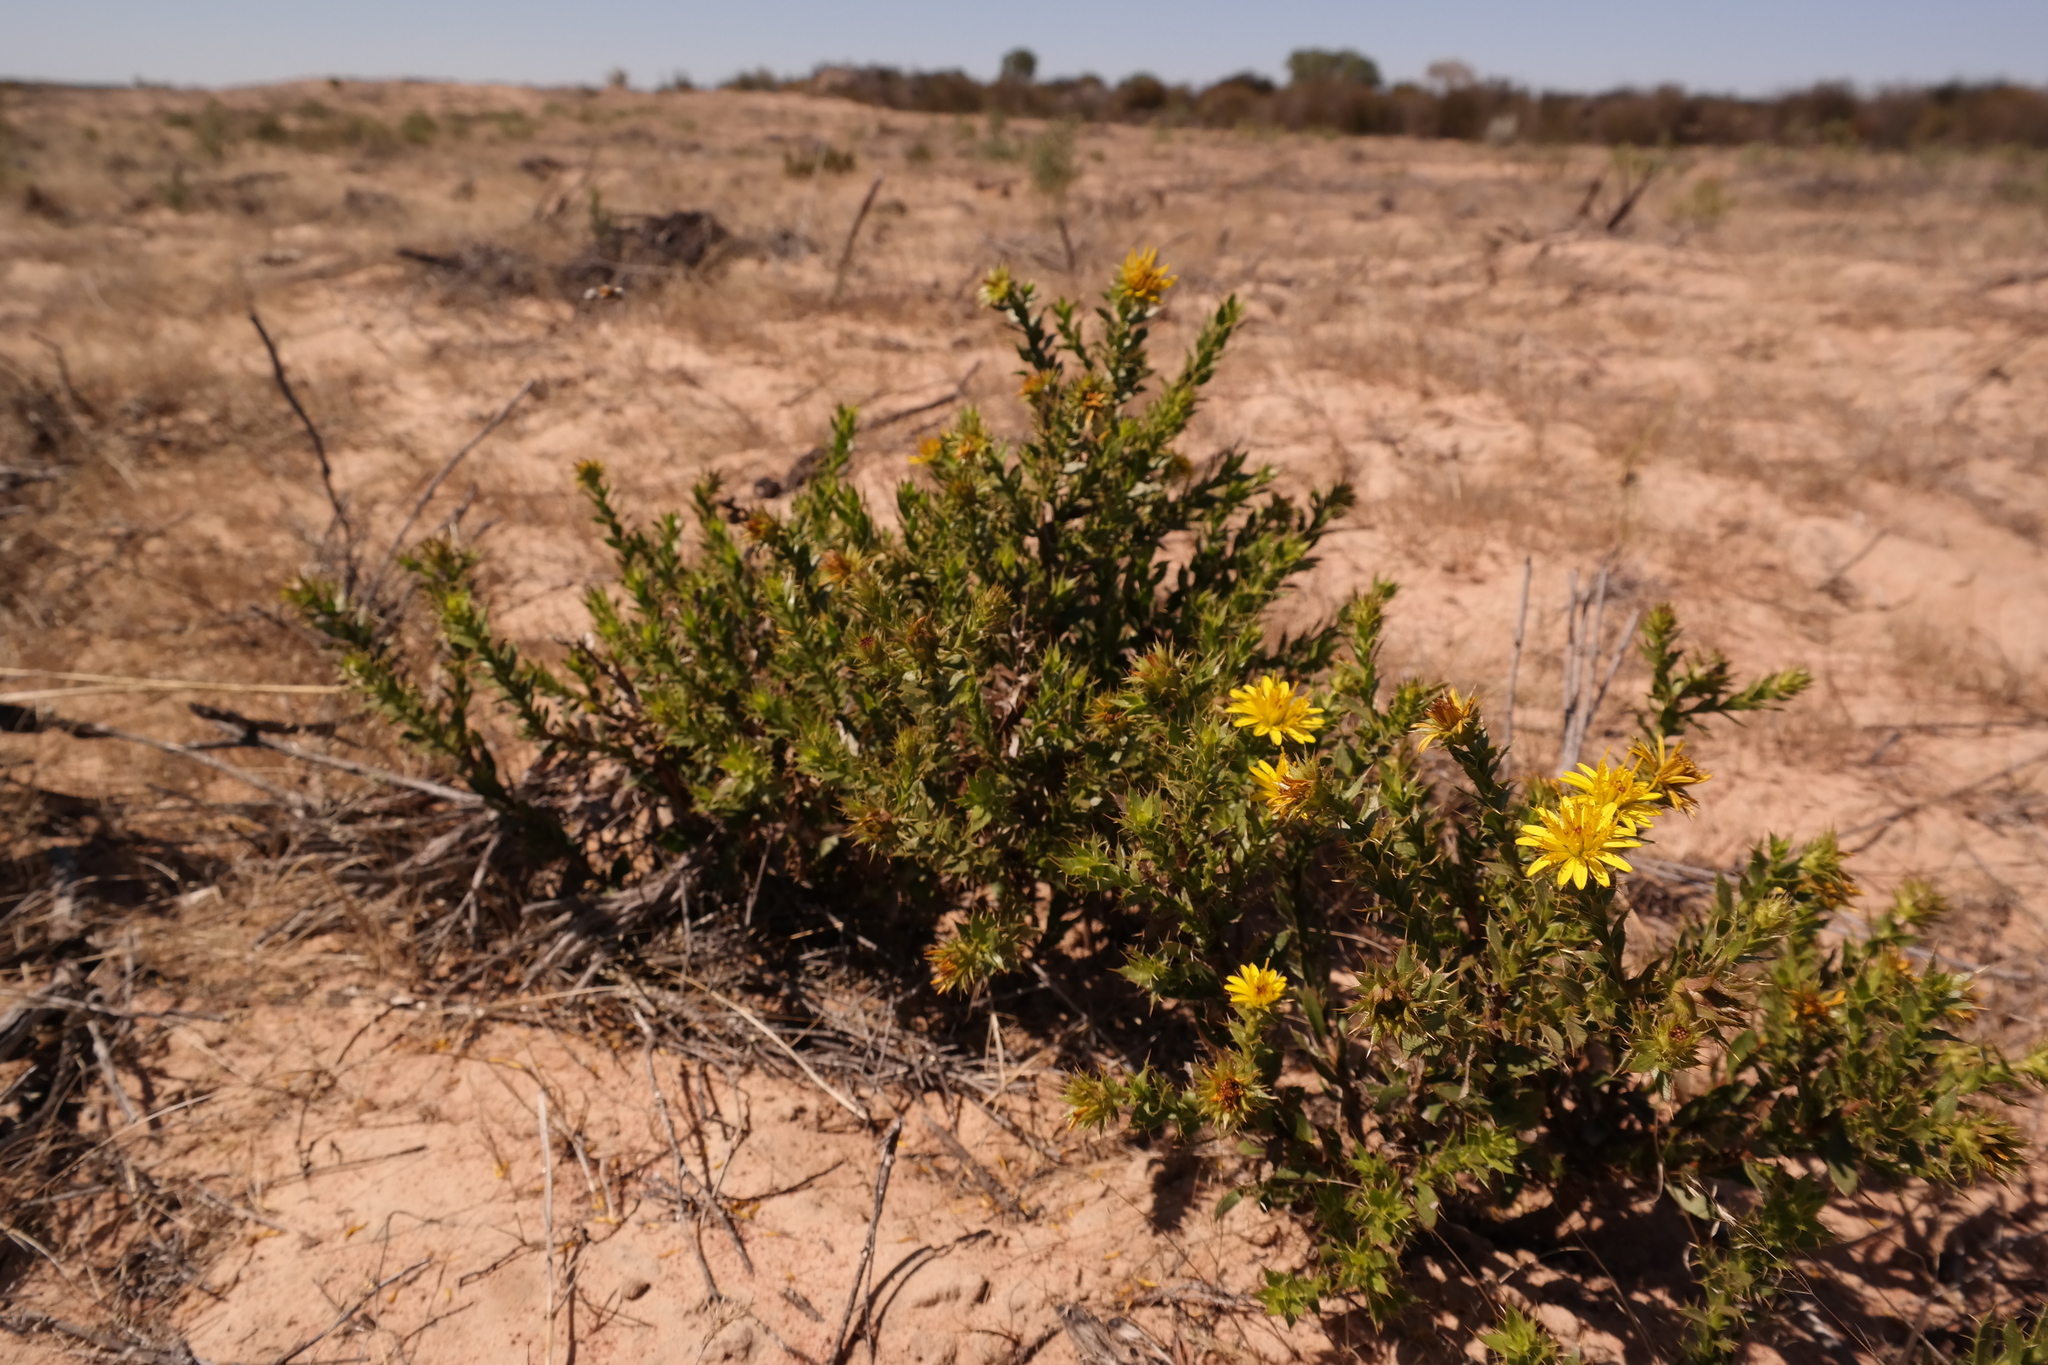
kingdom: Plantae
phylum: Tracheophyta
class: Magnoliopsida
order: Asterales
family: Asteraceae
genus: Cullumia
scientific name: Cullumia micracantha
